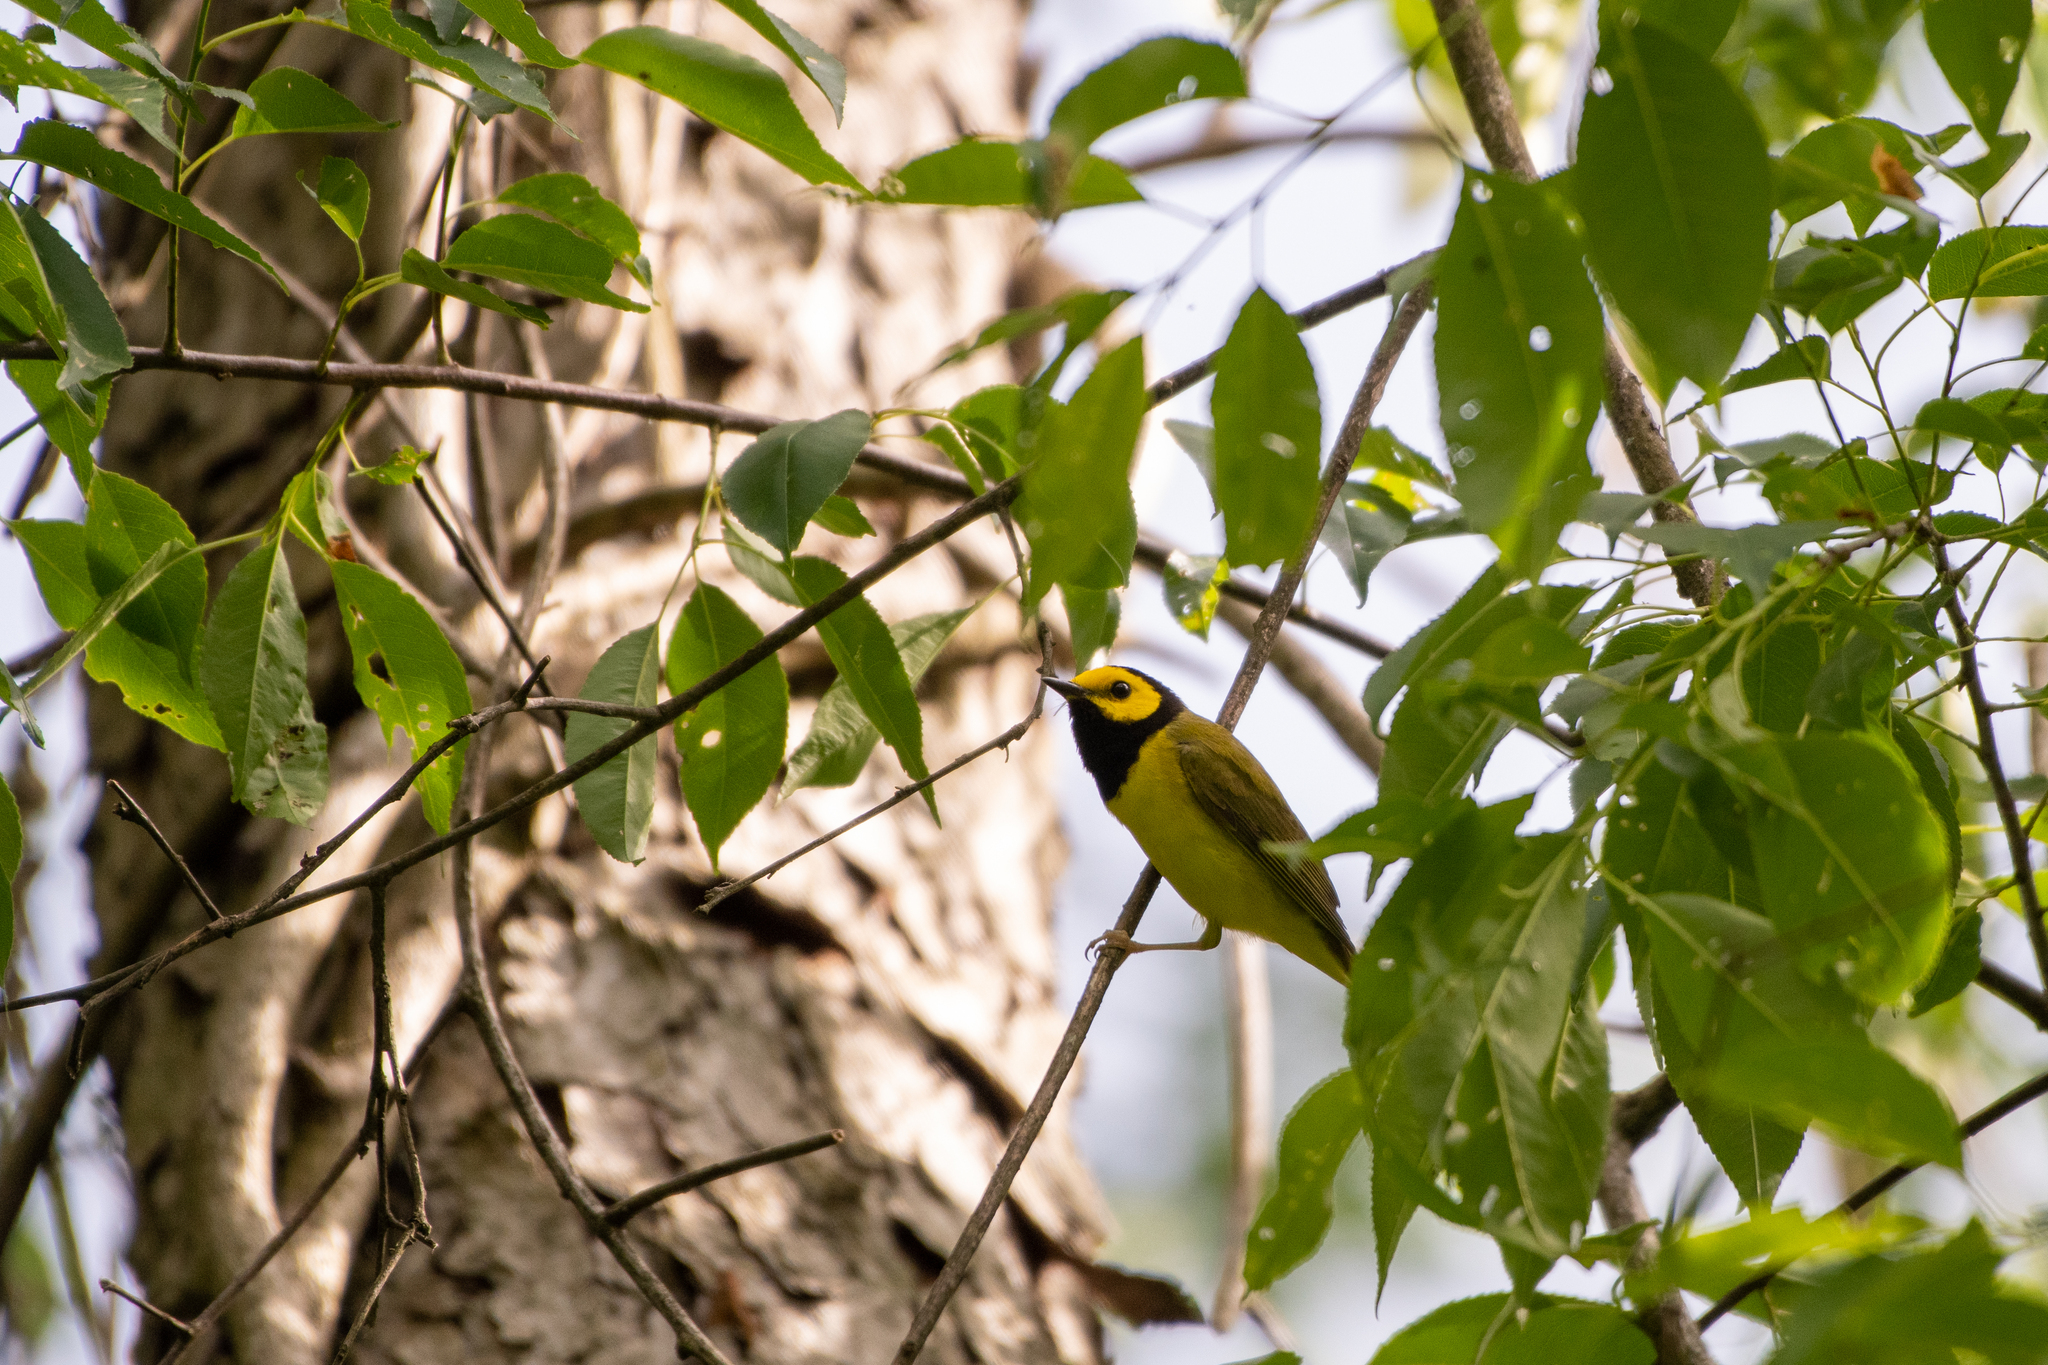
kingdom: Animalia
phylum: Chordata
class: Aves
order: Passeriformes
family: Parulidae
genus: Setophaga
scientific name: Setophaga citrina
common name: Hooded warbler
